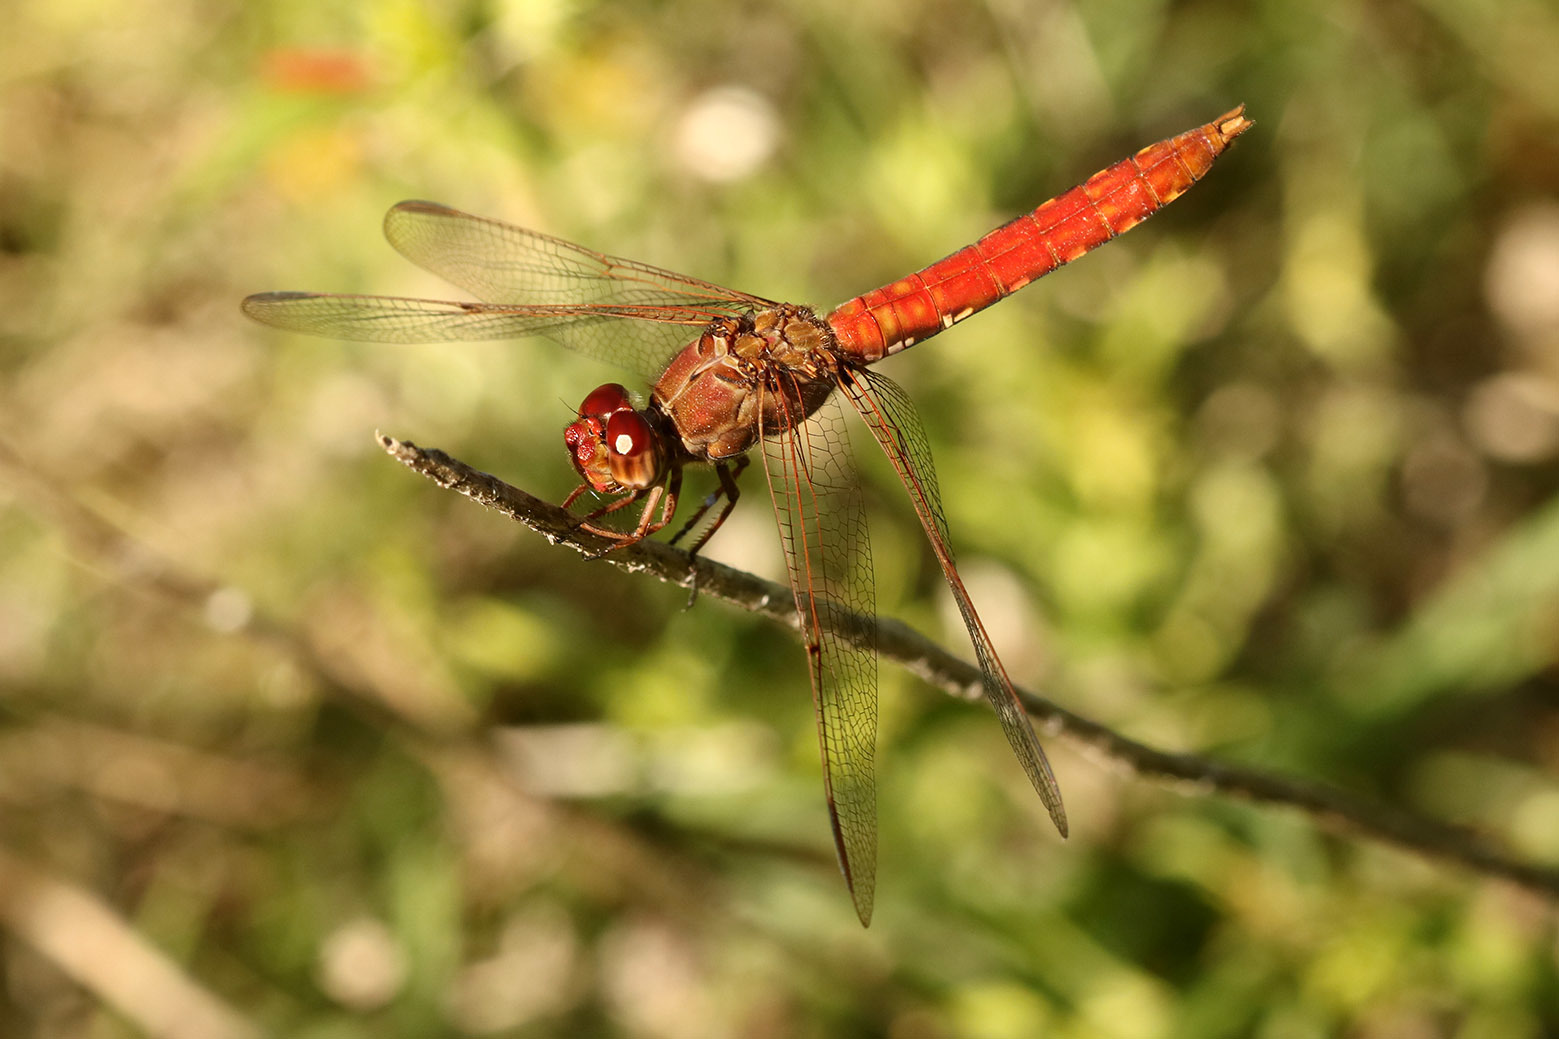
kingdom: Animalia
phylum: Arthropoda
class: Insecta
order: Odonata
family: Libellulidae
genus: Orthemis
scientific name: Orthemis nodiplaga
